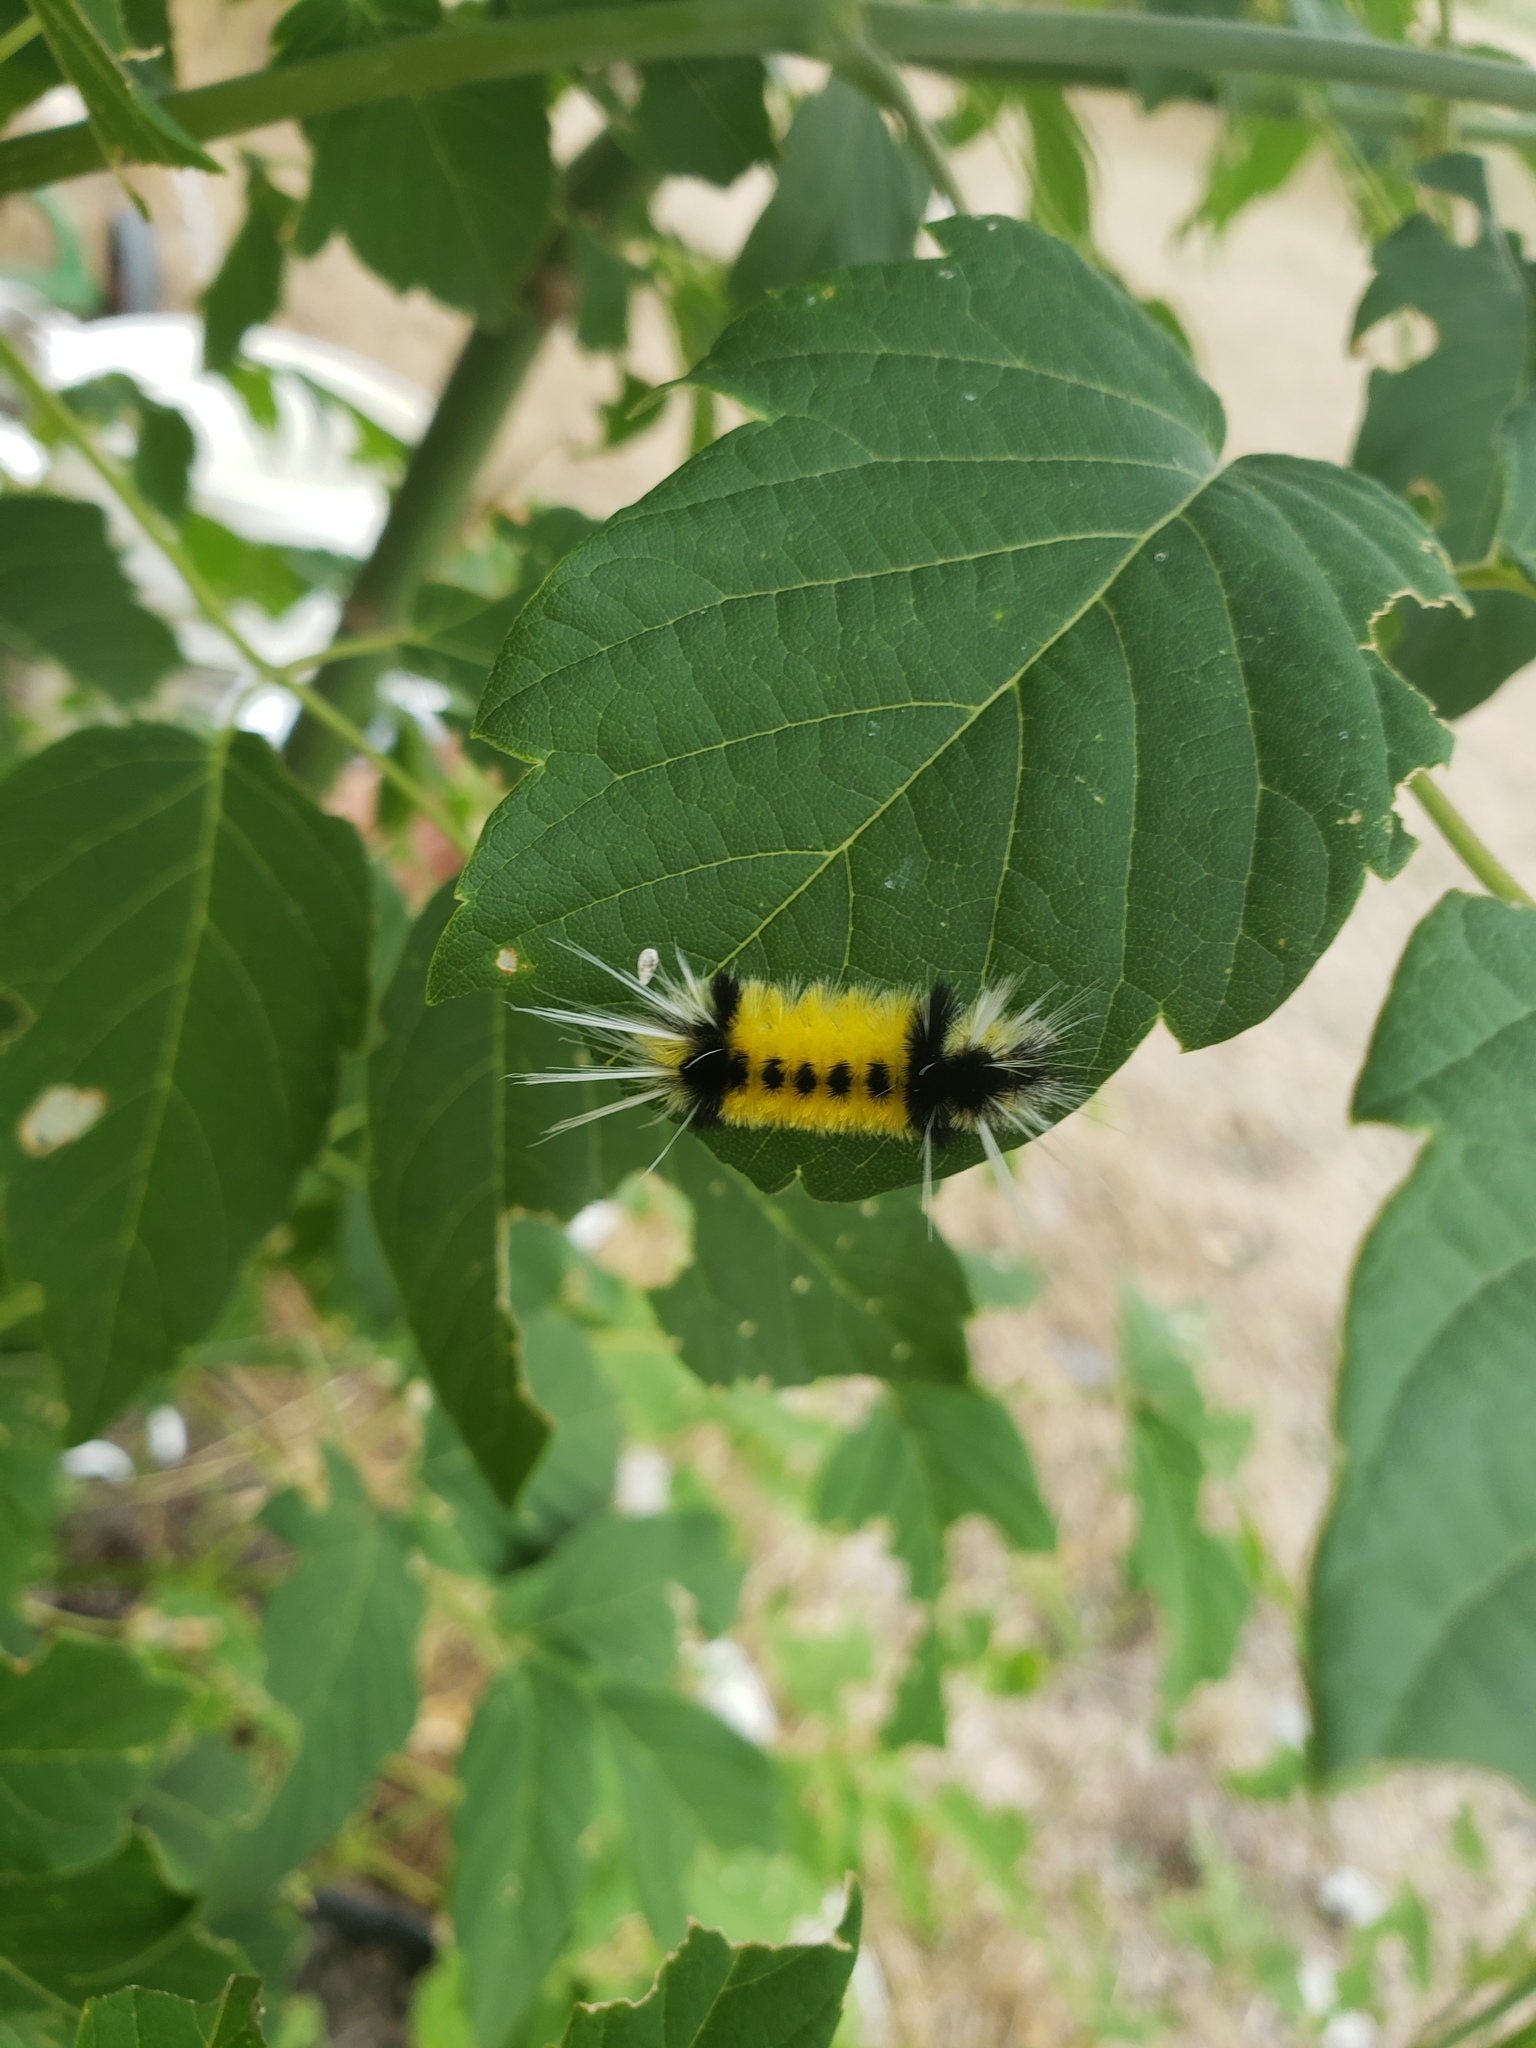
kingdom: Animalia
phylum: Arthropoda
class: Insecta
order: Lepidoptera
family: Erebidae
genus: Lophocampa
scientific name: Lophocampa maculata
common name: Spotted tussock moth
